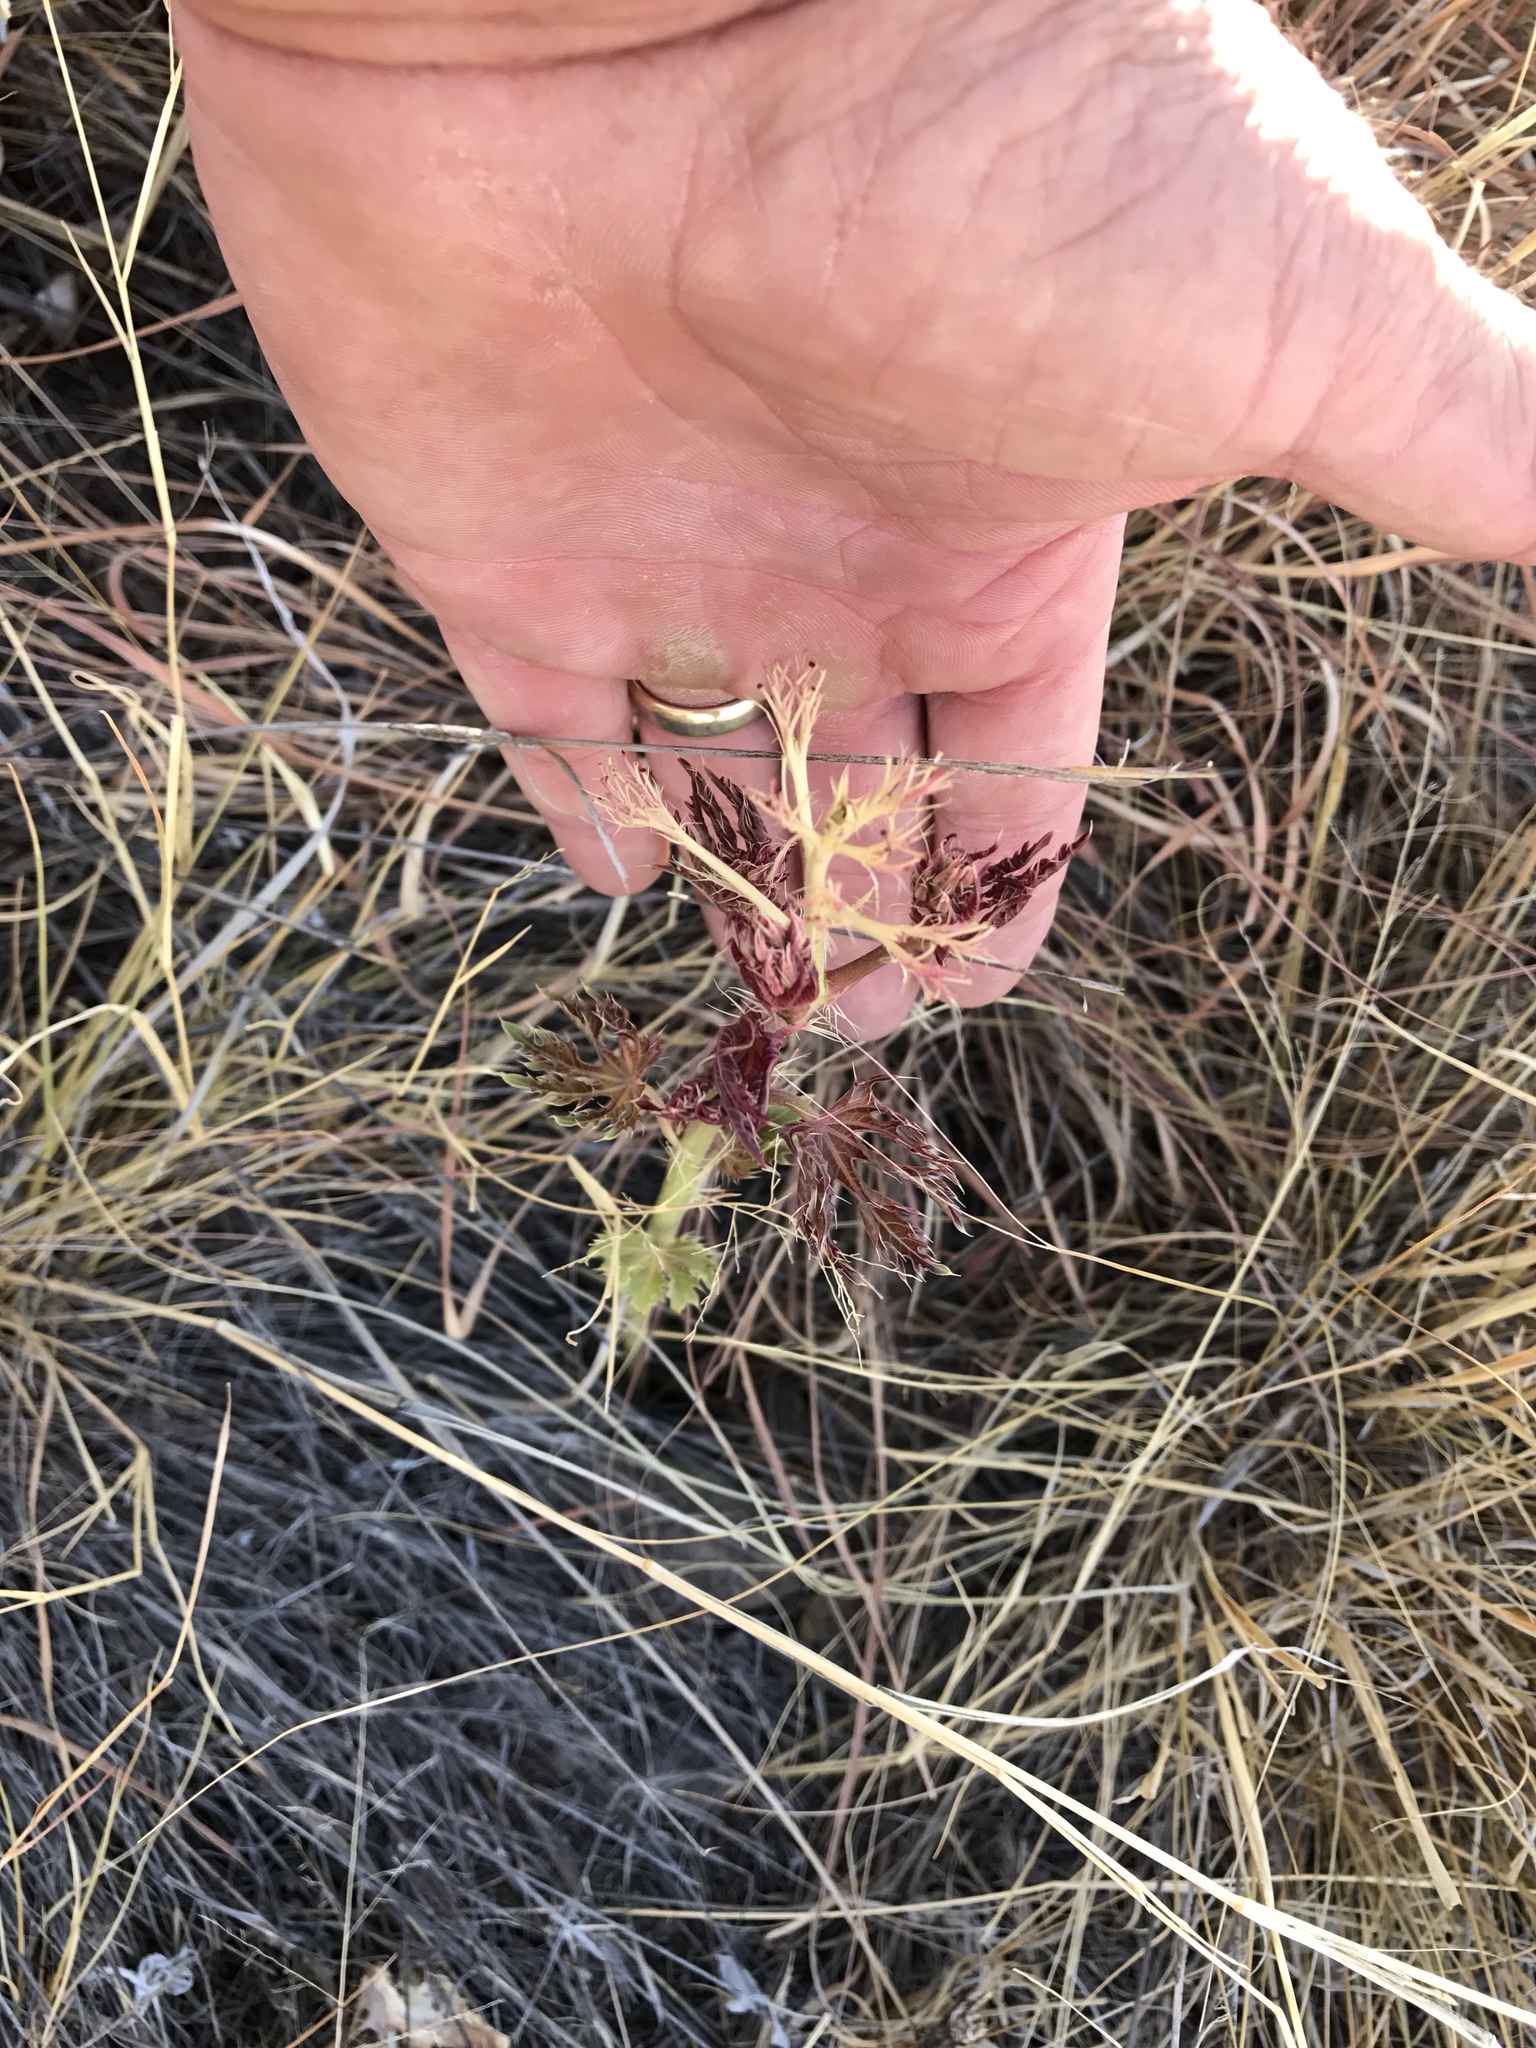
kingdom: Plantae
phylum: Tracheophyta
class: Magnoliopsida
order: Malpighiales
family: Euphorbiaceae
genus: Jatropha
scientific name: Jatropha macrorhiza
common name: Ragged nettlespurge
